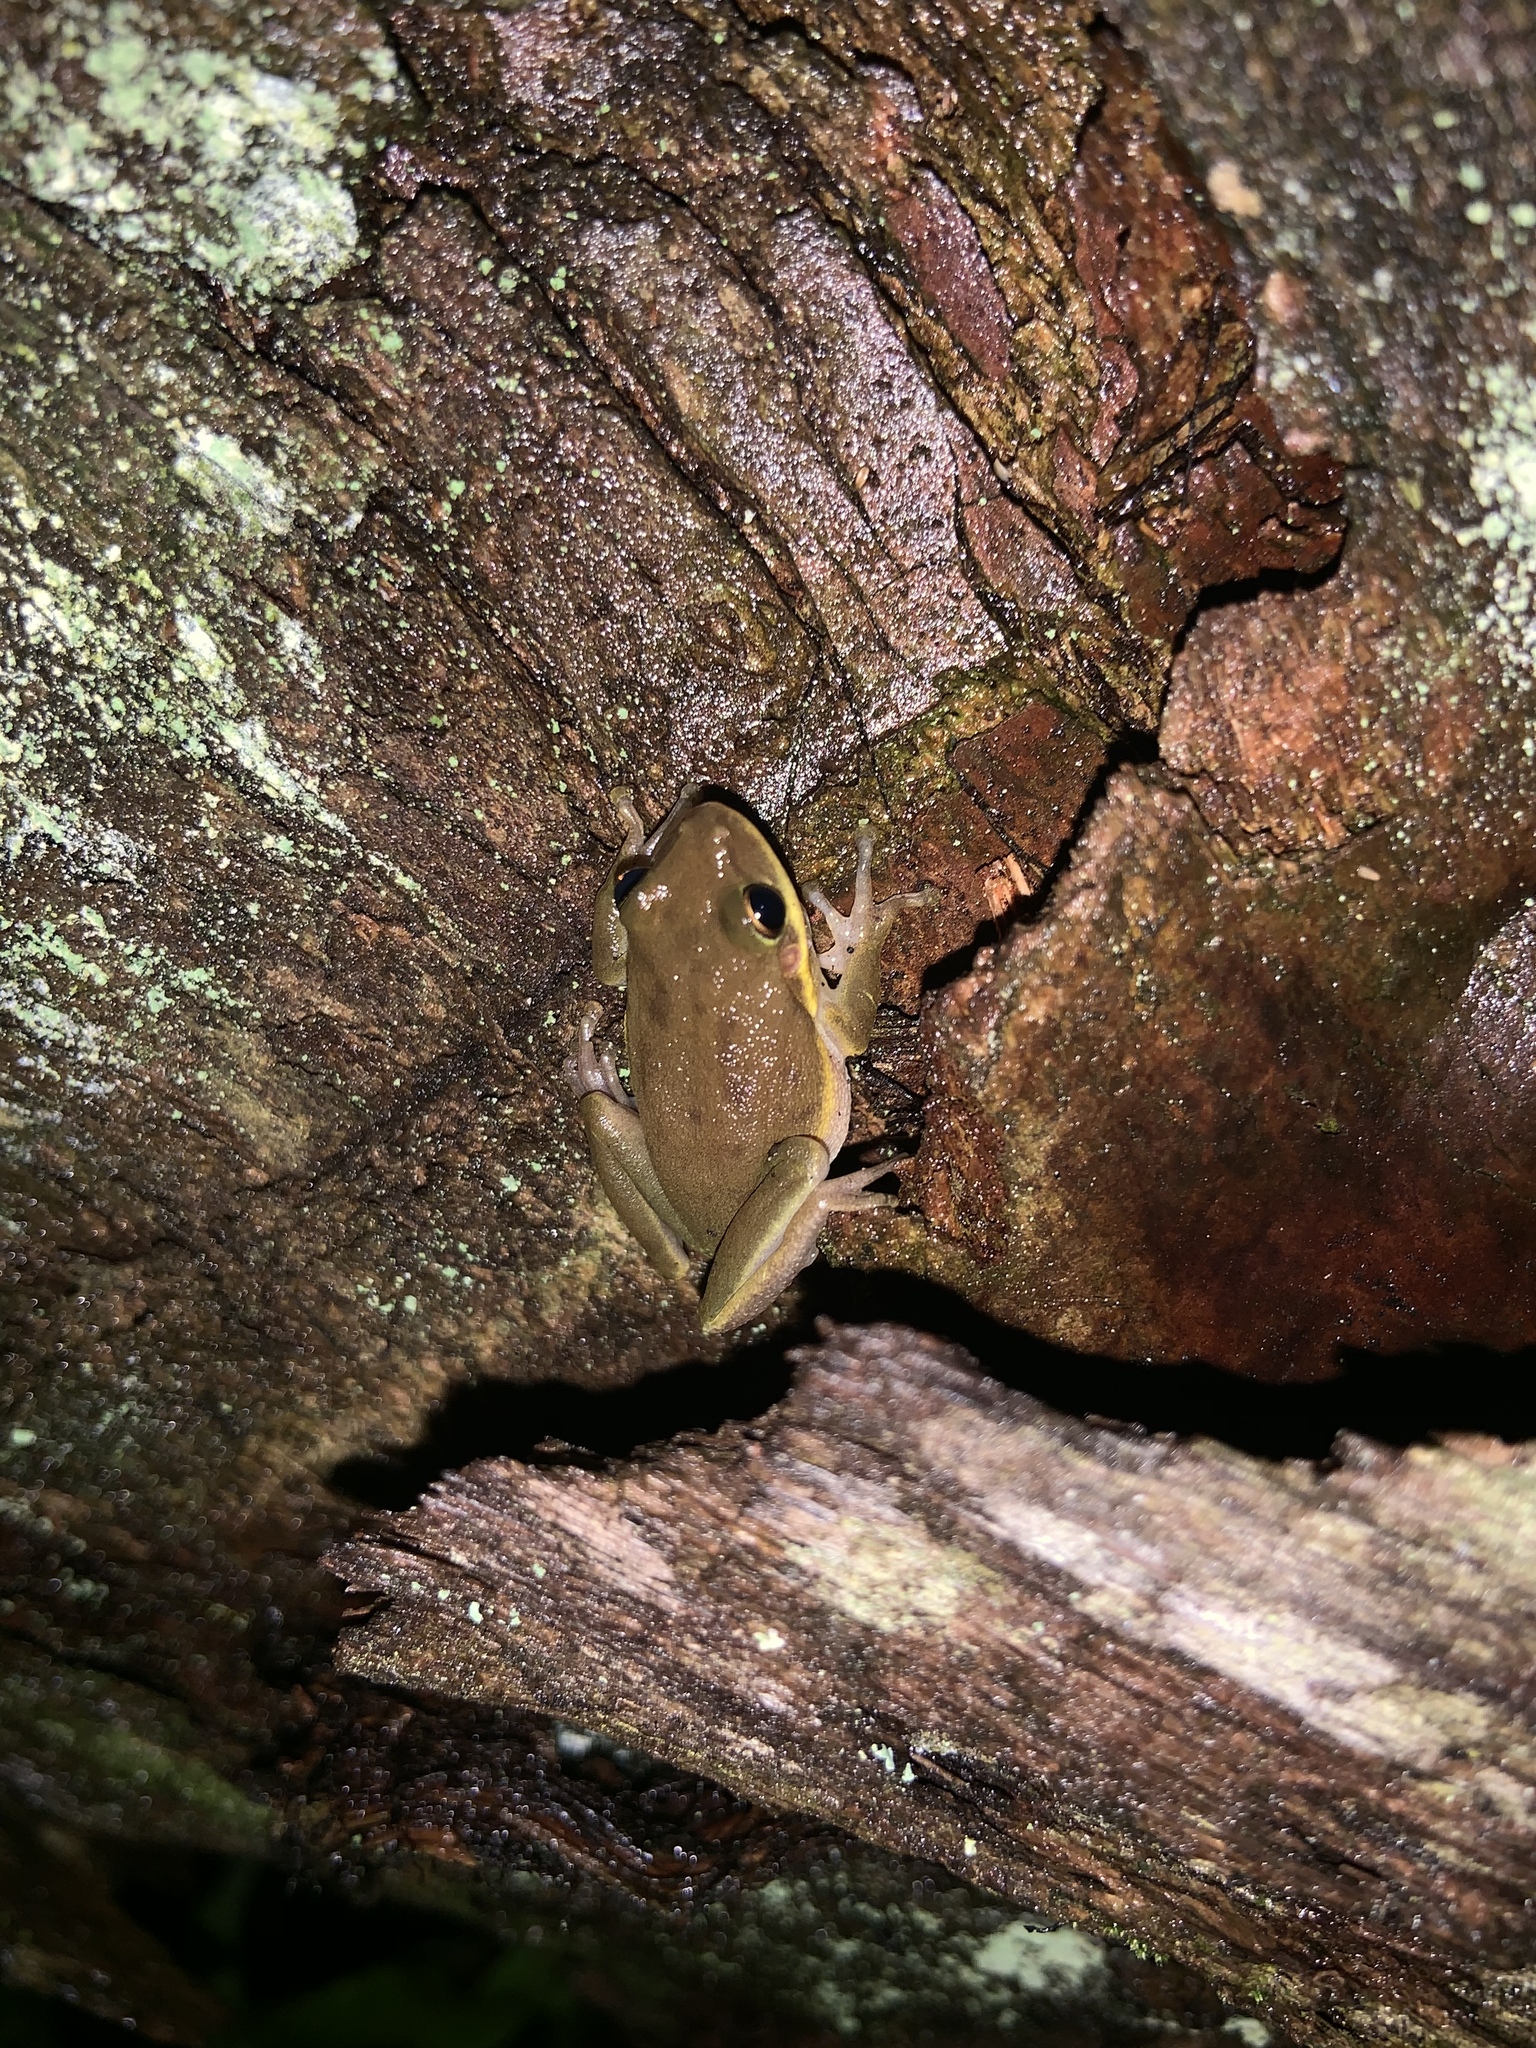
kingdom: Animalia
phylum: Chordata
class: Amphibia
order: Anura
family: Hylidae
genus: Dryophytes
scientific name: Dryophytes squirellus
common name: Squirrel treefrog
